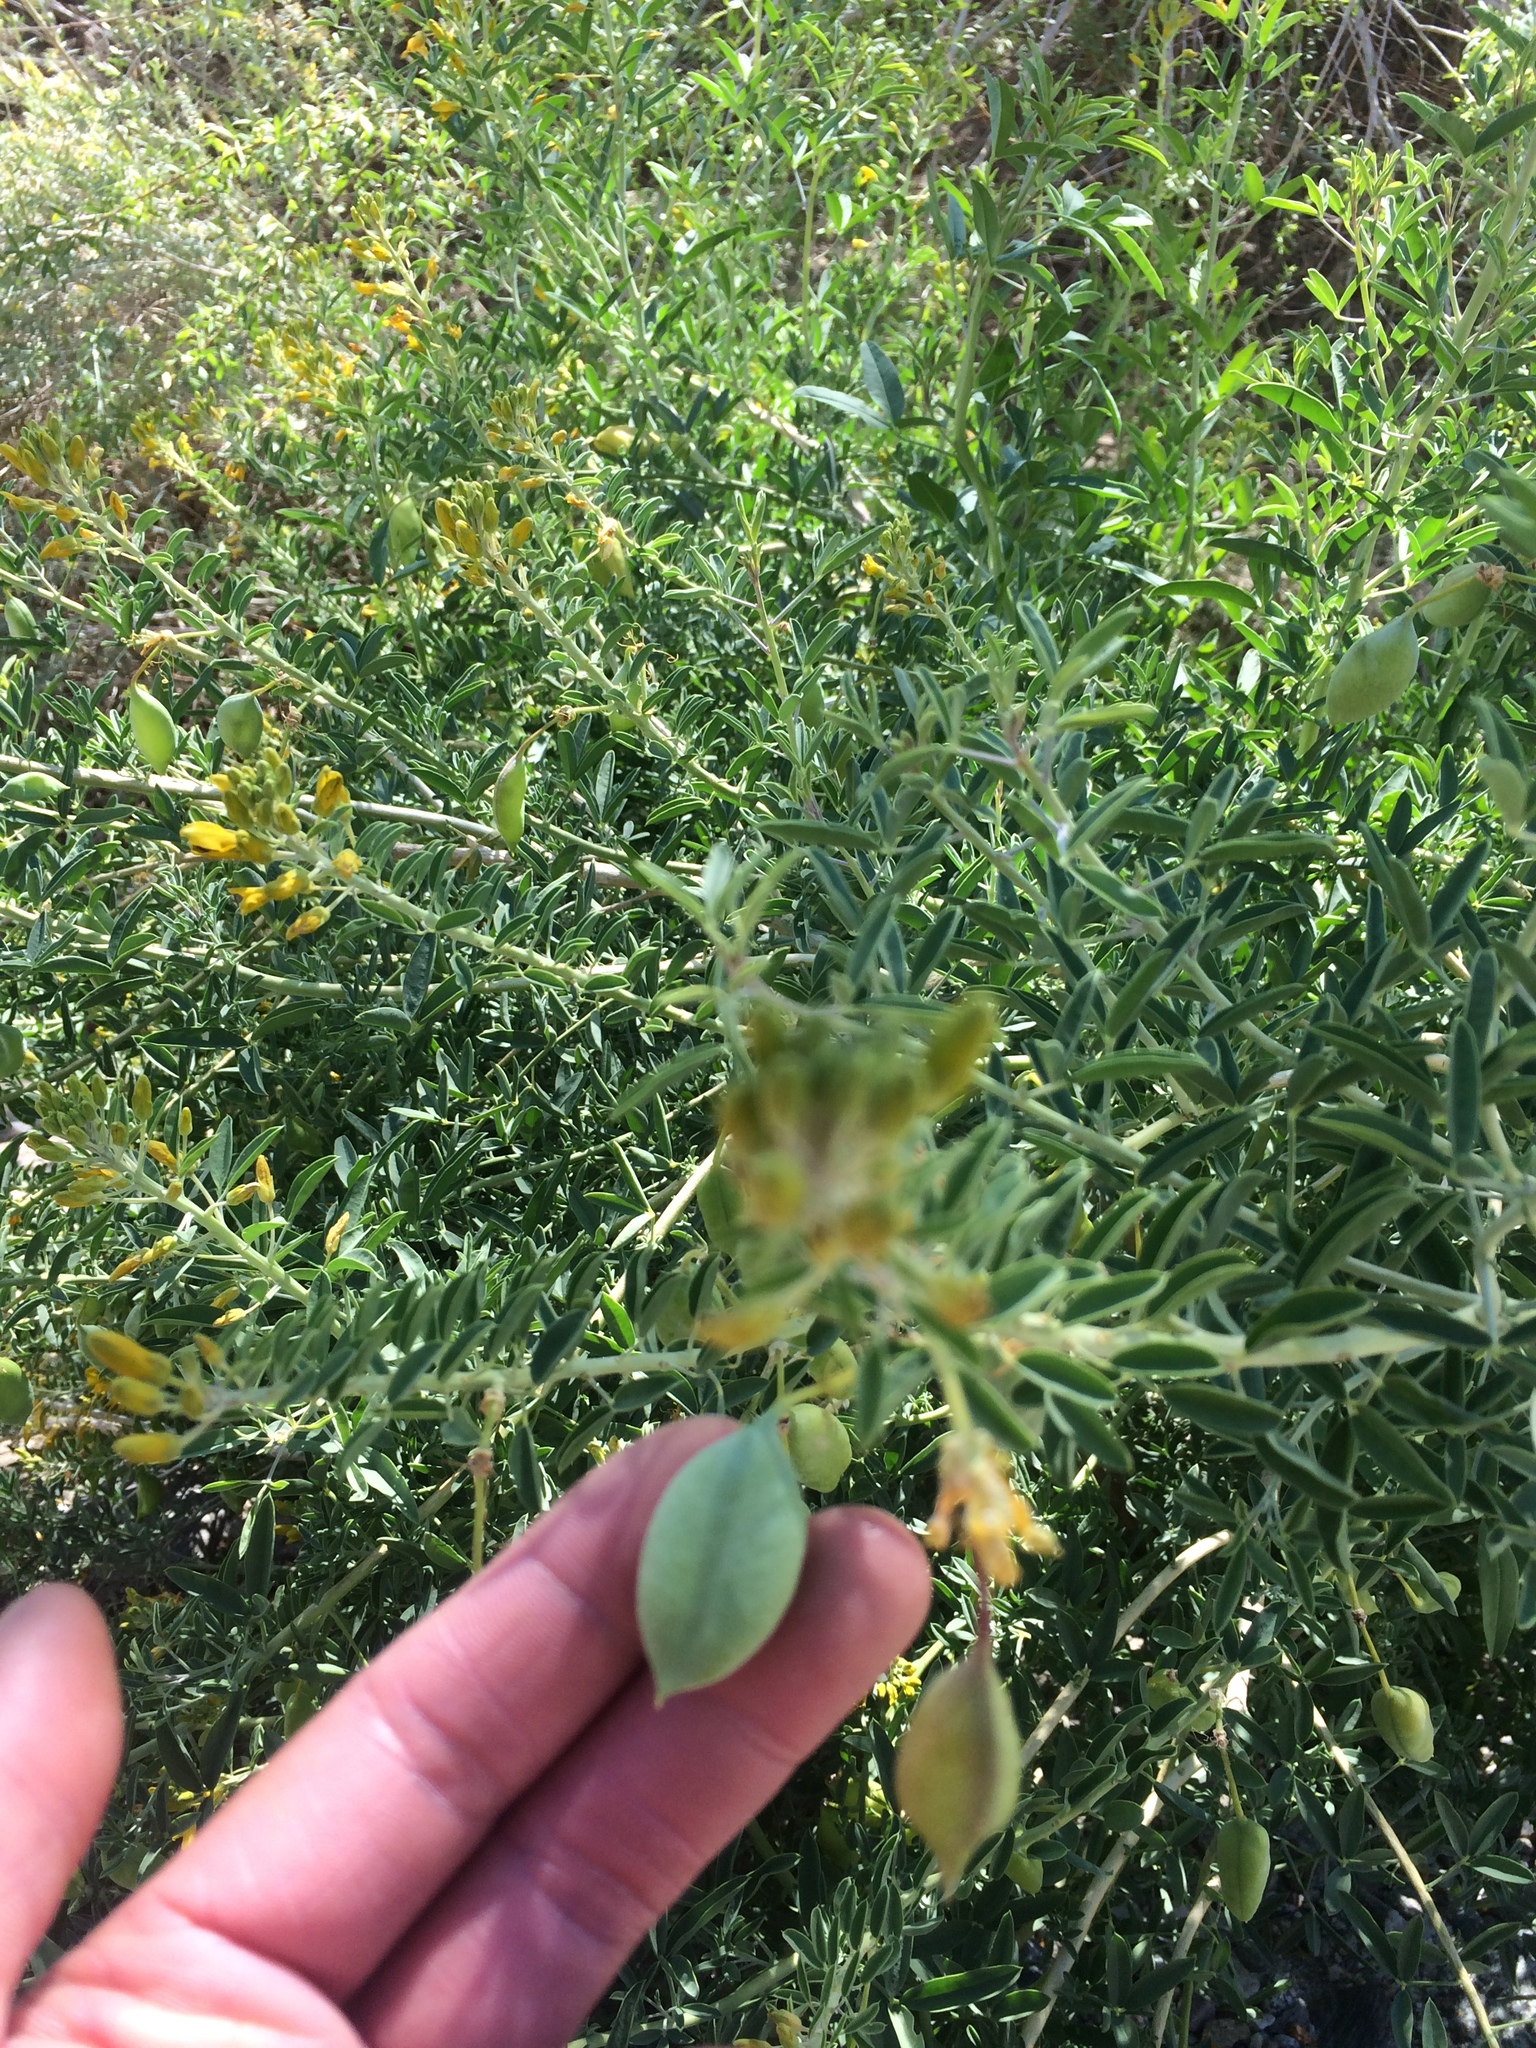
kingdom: Plantae
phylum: Tracheophyta
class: Magnoliopsida
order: Brassicales
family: Cleomaceae
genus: Cleomella
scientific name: Cleomella arborea
